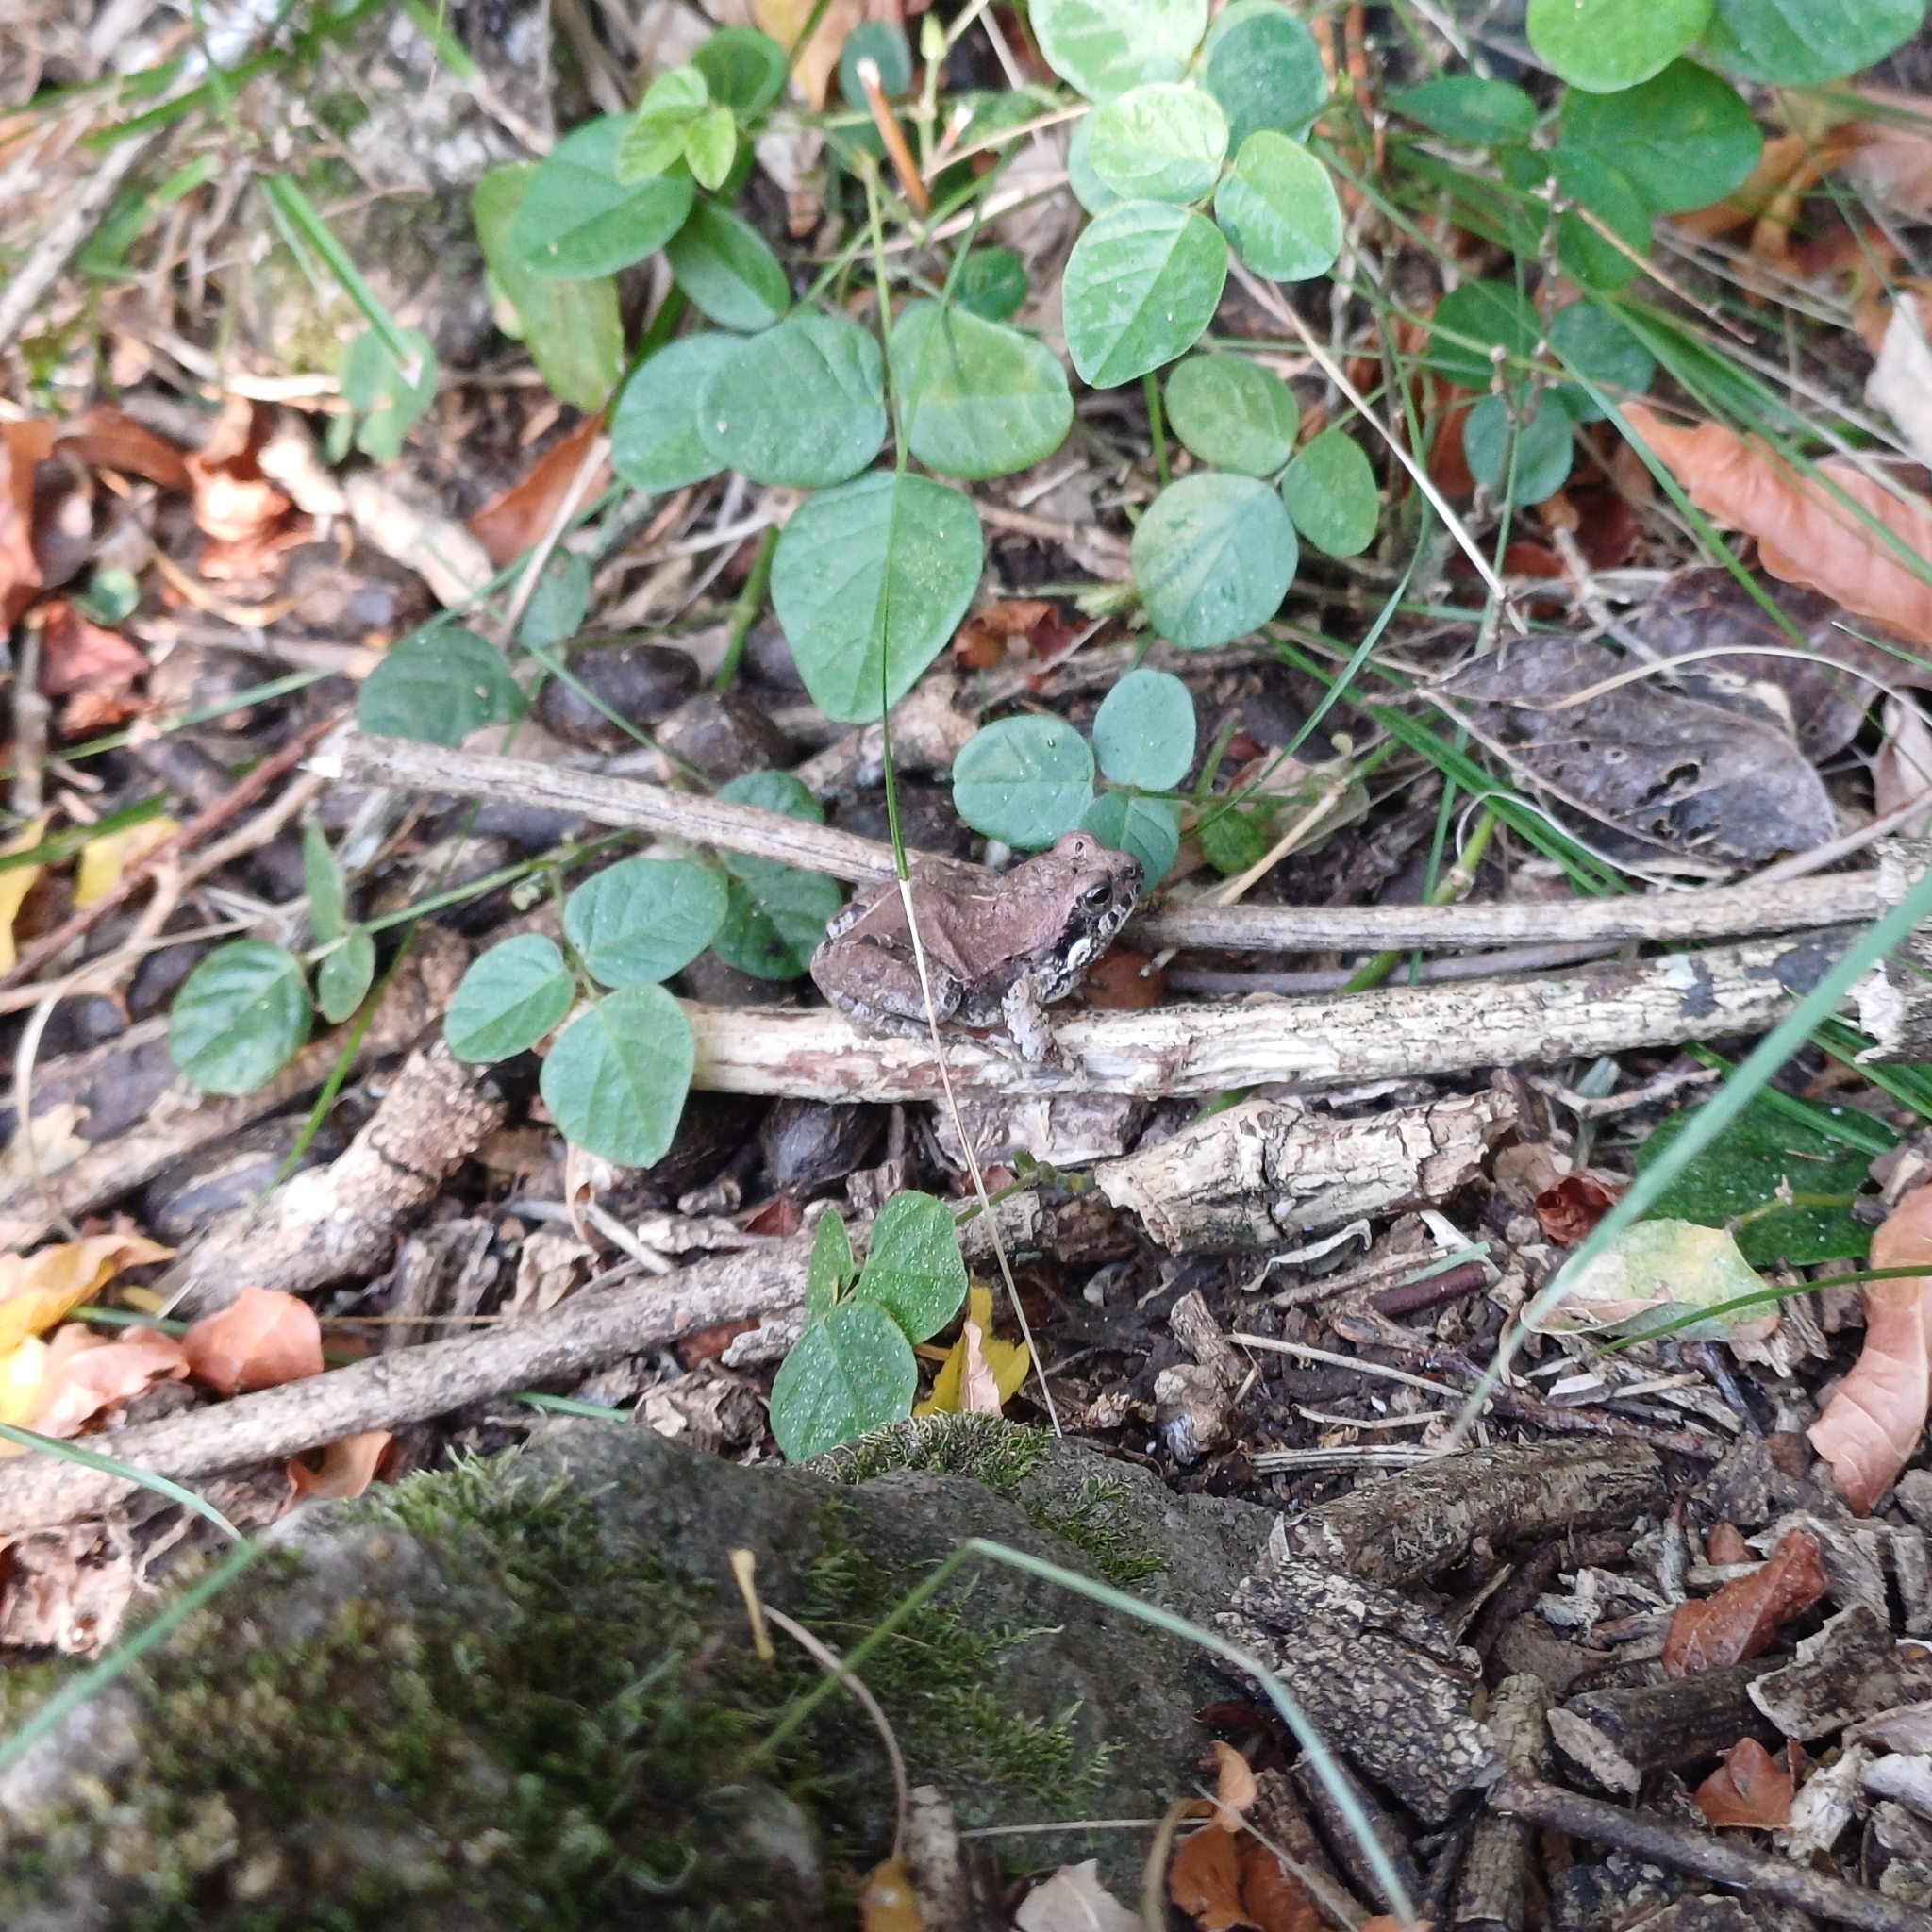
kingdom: Animalia
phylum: Chordata
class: Amphibia
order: Anura
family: Leptodactylidae
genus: Physalaemus
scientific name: Physalaemus biligonigerus
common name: Weeping frog
